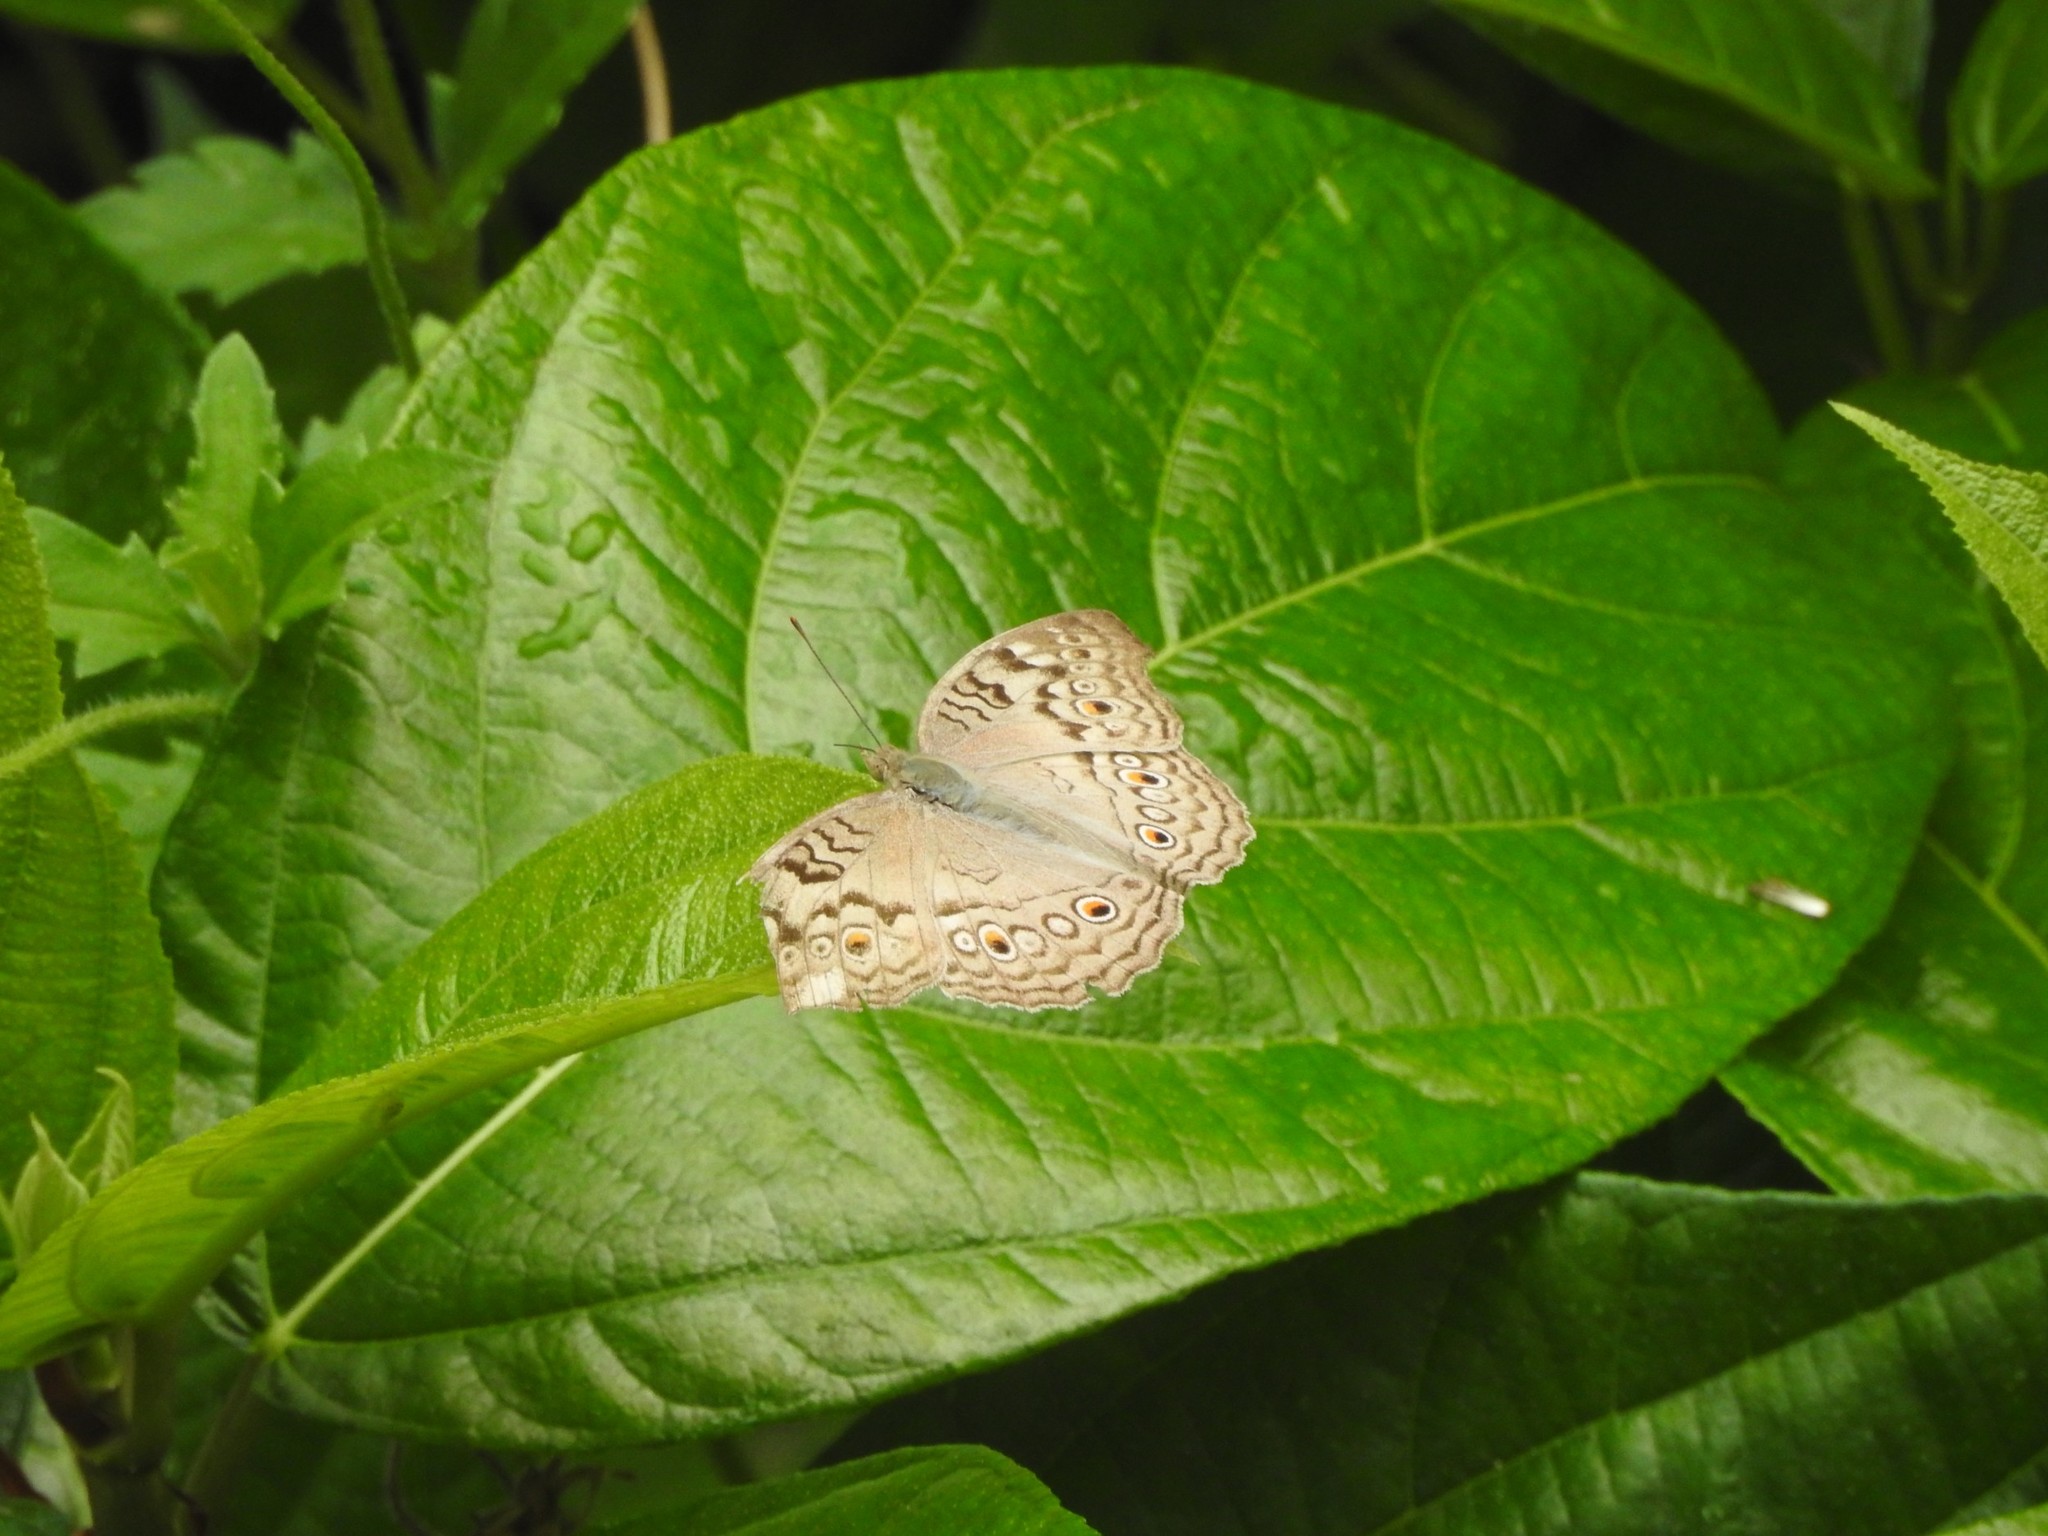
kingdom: Animalia
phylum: Arthropoda
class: Insecta
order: Lepidoptera
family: Nymphalidae
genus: Junonia
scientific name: Junonia atlites
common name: Grey pansy
